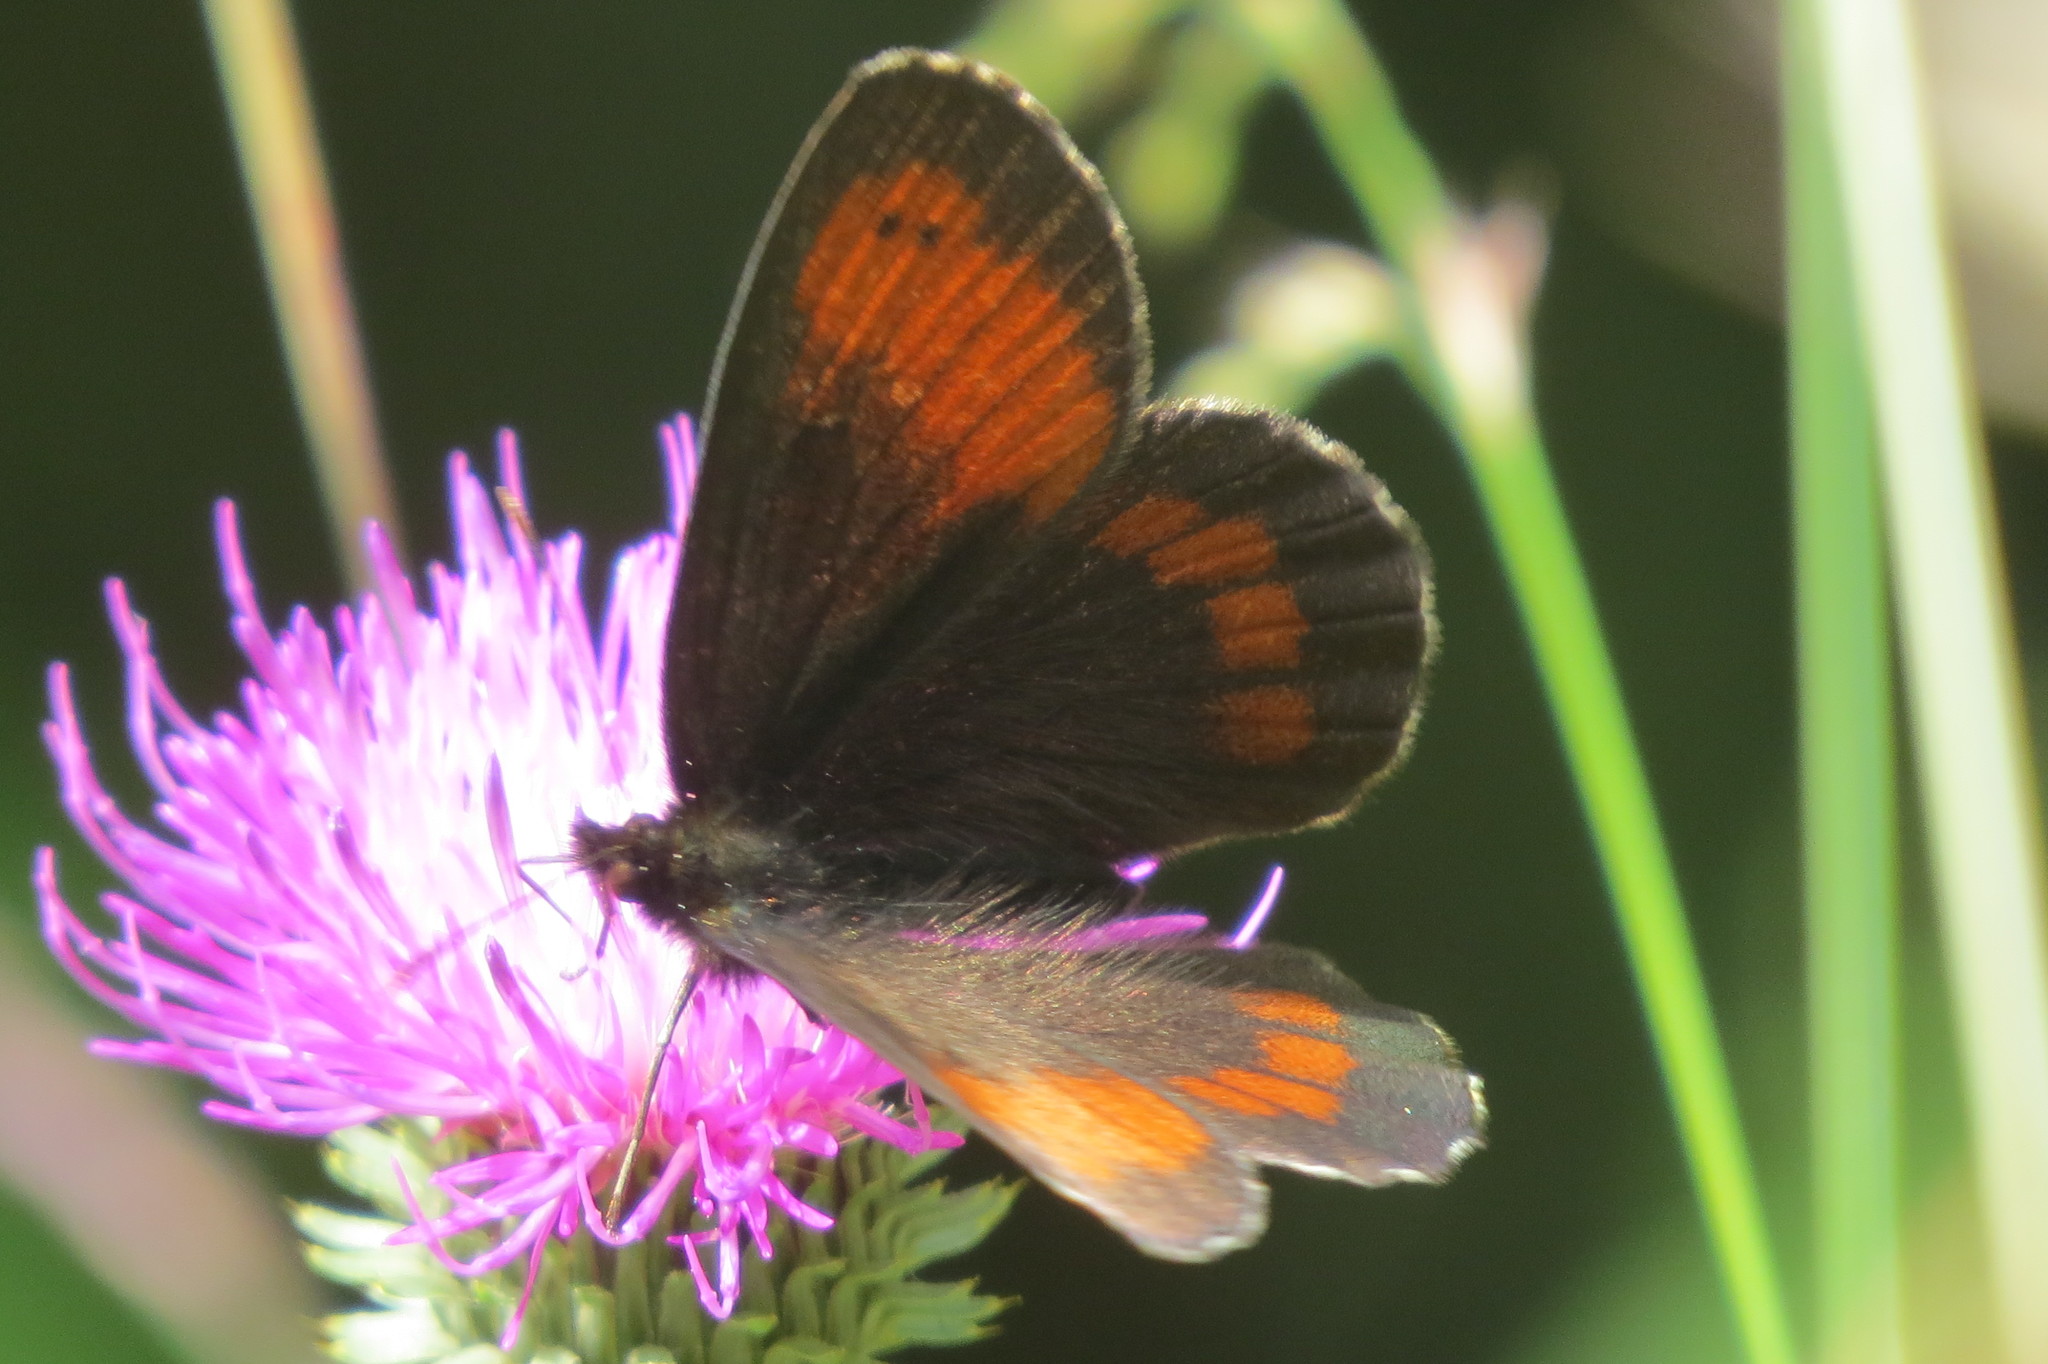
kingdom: Animalia
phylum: Arthropoda
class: Insecta
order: Lepidoptera
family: Nymphalidae
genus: Erebia
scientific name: Erebia euryale
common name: Large ringlet
